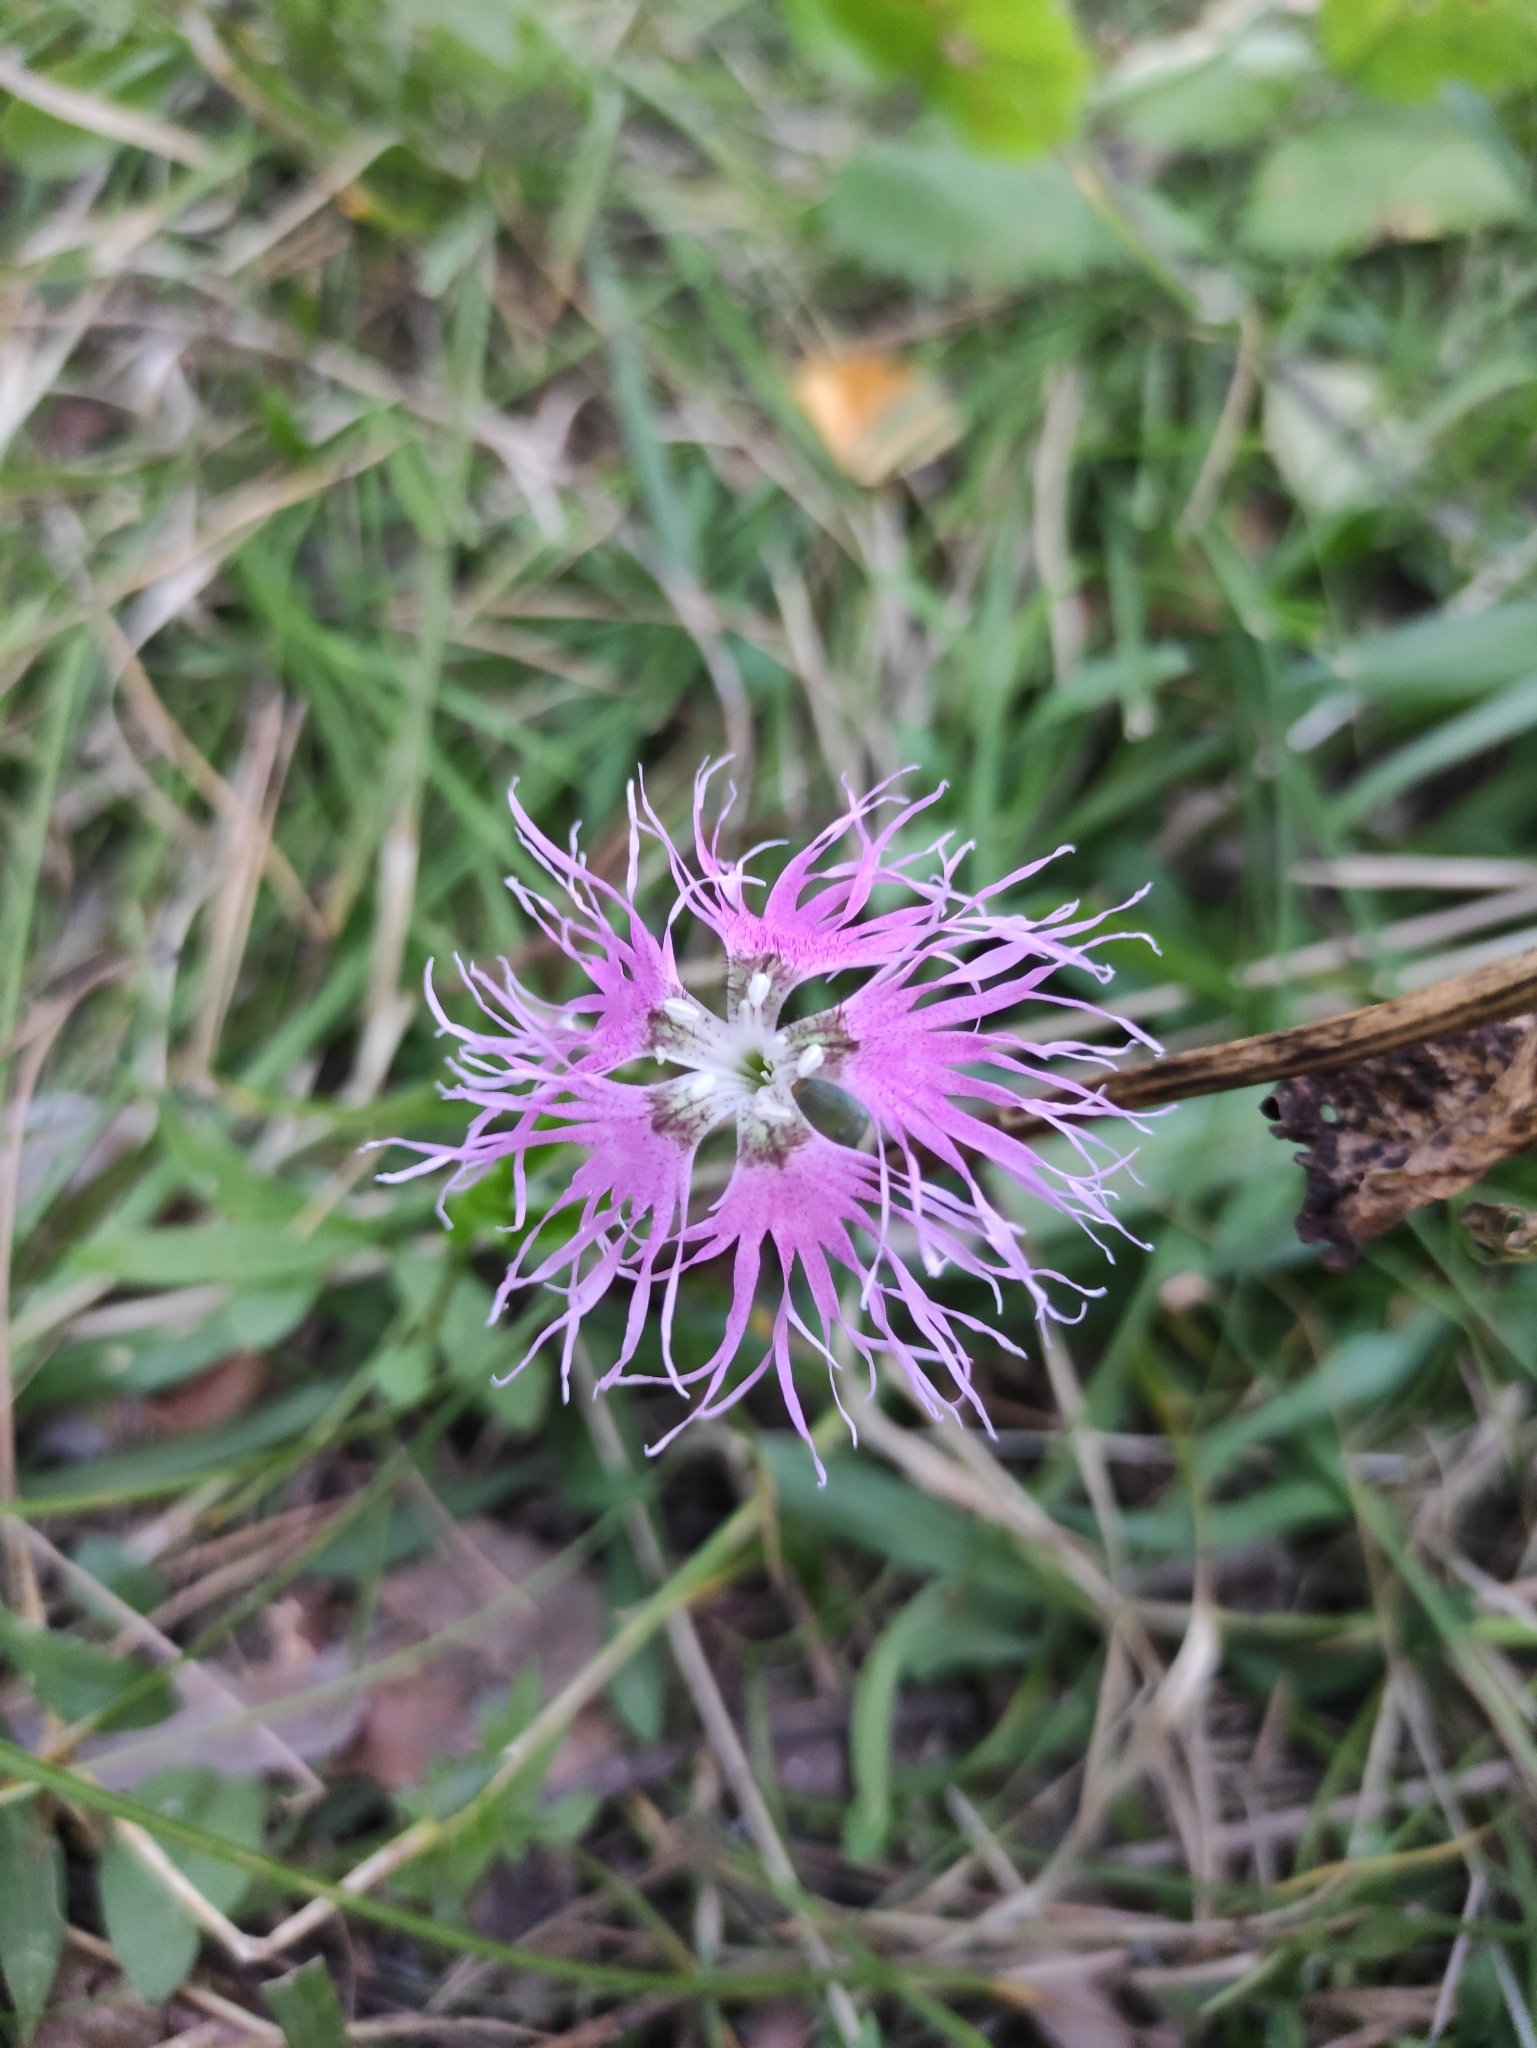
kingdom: Plantae
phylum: Tracheophyta
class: Magnoliopsida
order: Caryophyllales
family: Caryophyllaceae
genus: Dianthus
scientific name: Dianthus superbus
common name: Fringed pink
